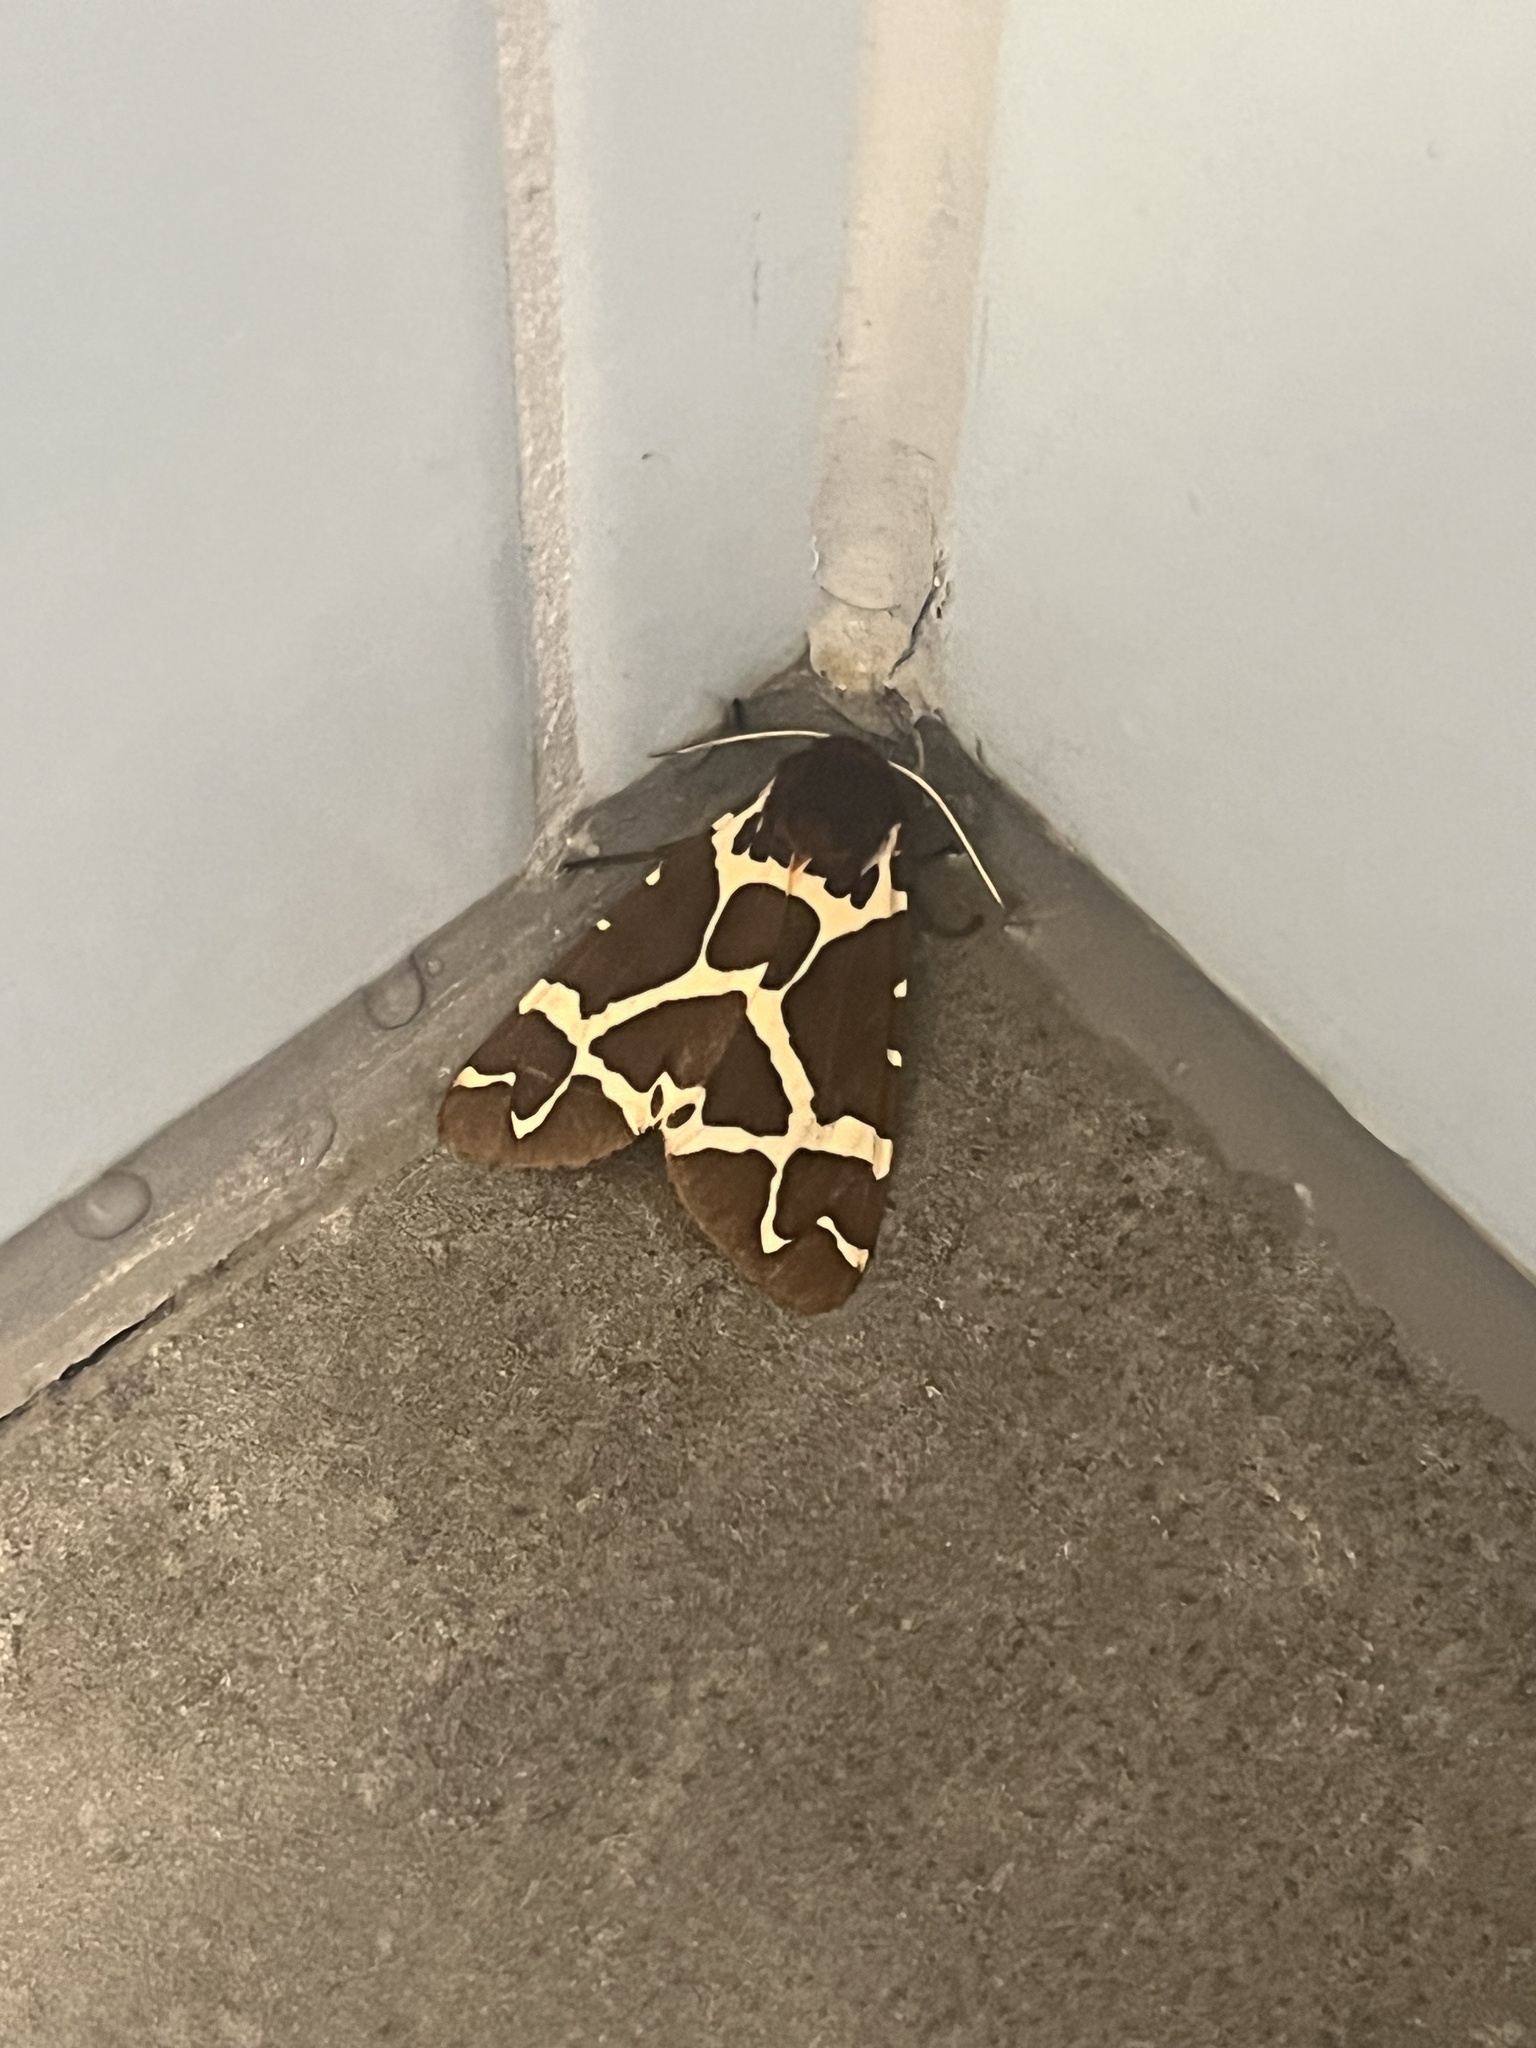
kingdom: Animalia
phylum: Arthropoda
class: Insecta
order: Lepidoptera
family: Erebidae
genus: Arctia
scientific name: Arctia caja
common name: Garden tiger
